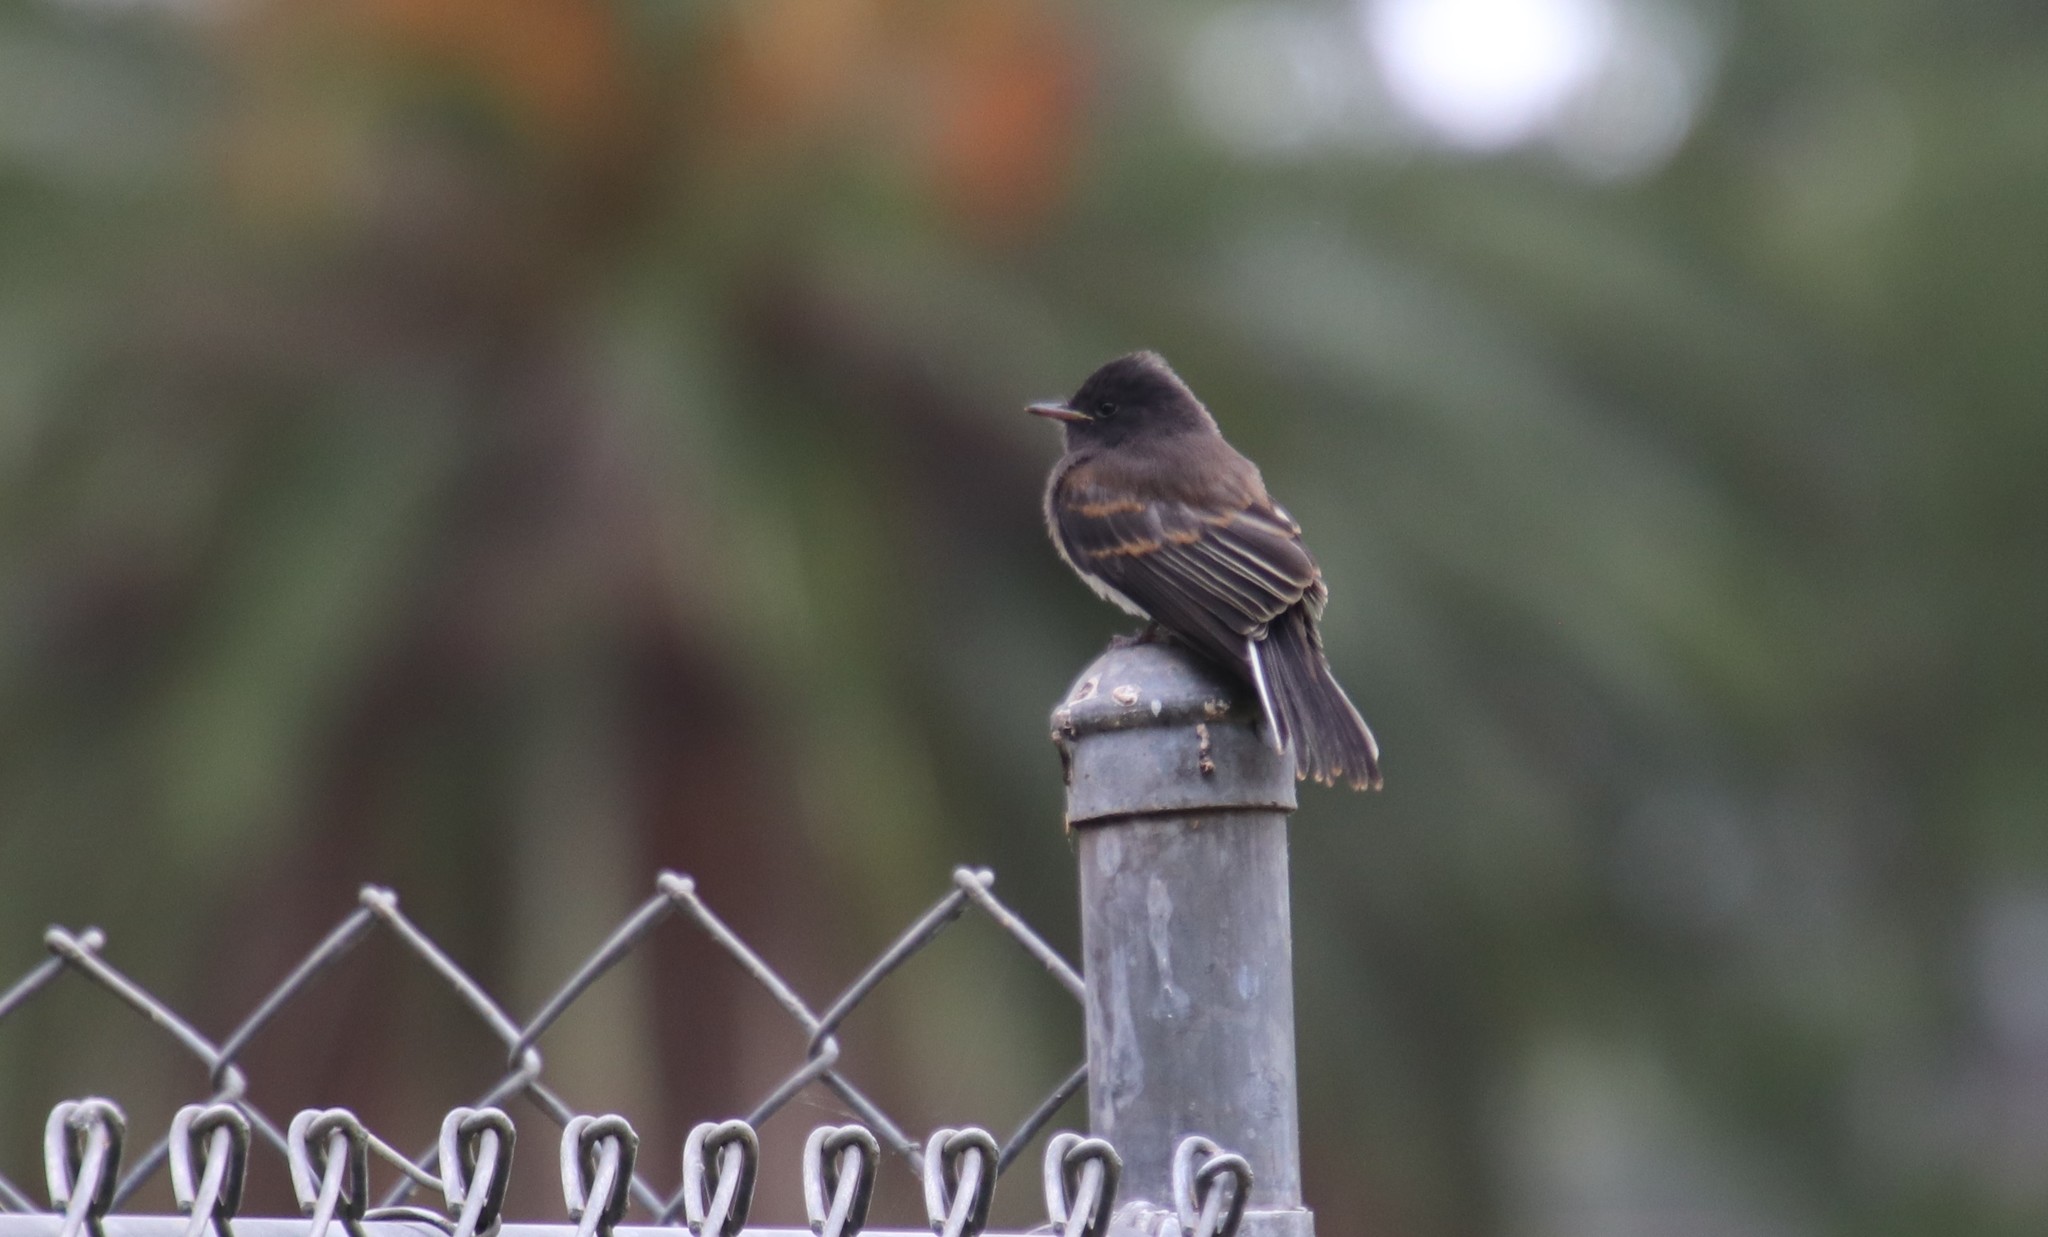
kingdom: Animalia
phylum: Chordata
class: Aves
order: Passeriformes
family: Tyrannidae
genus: Sayornis
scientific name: Sayornis nigricans
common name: Black phoebe
